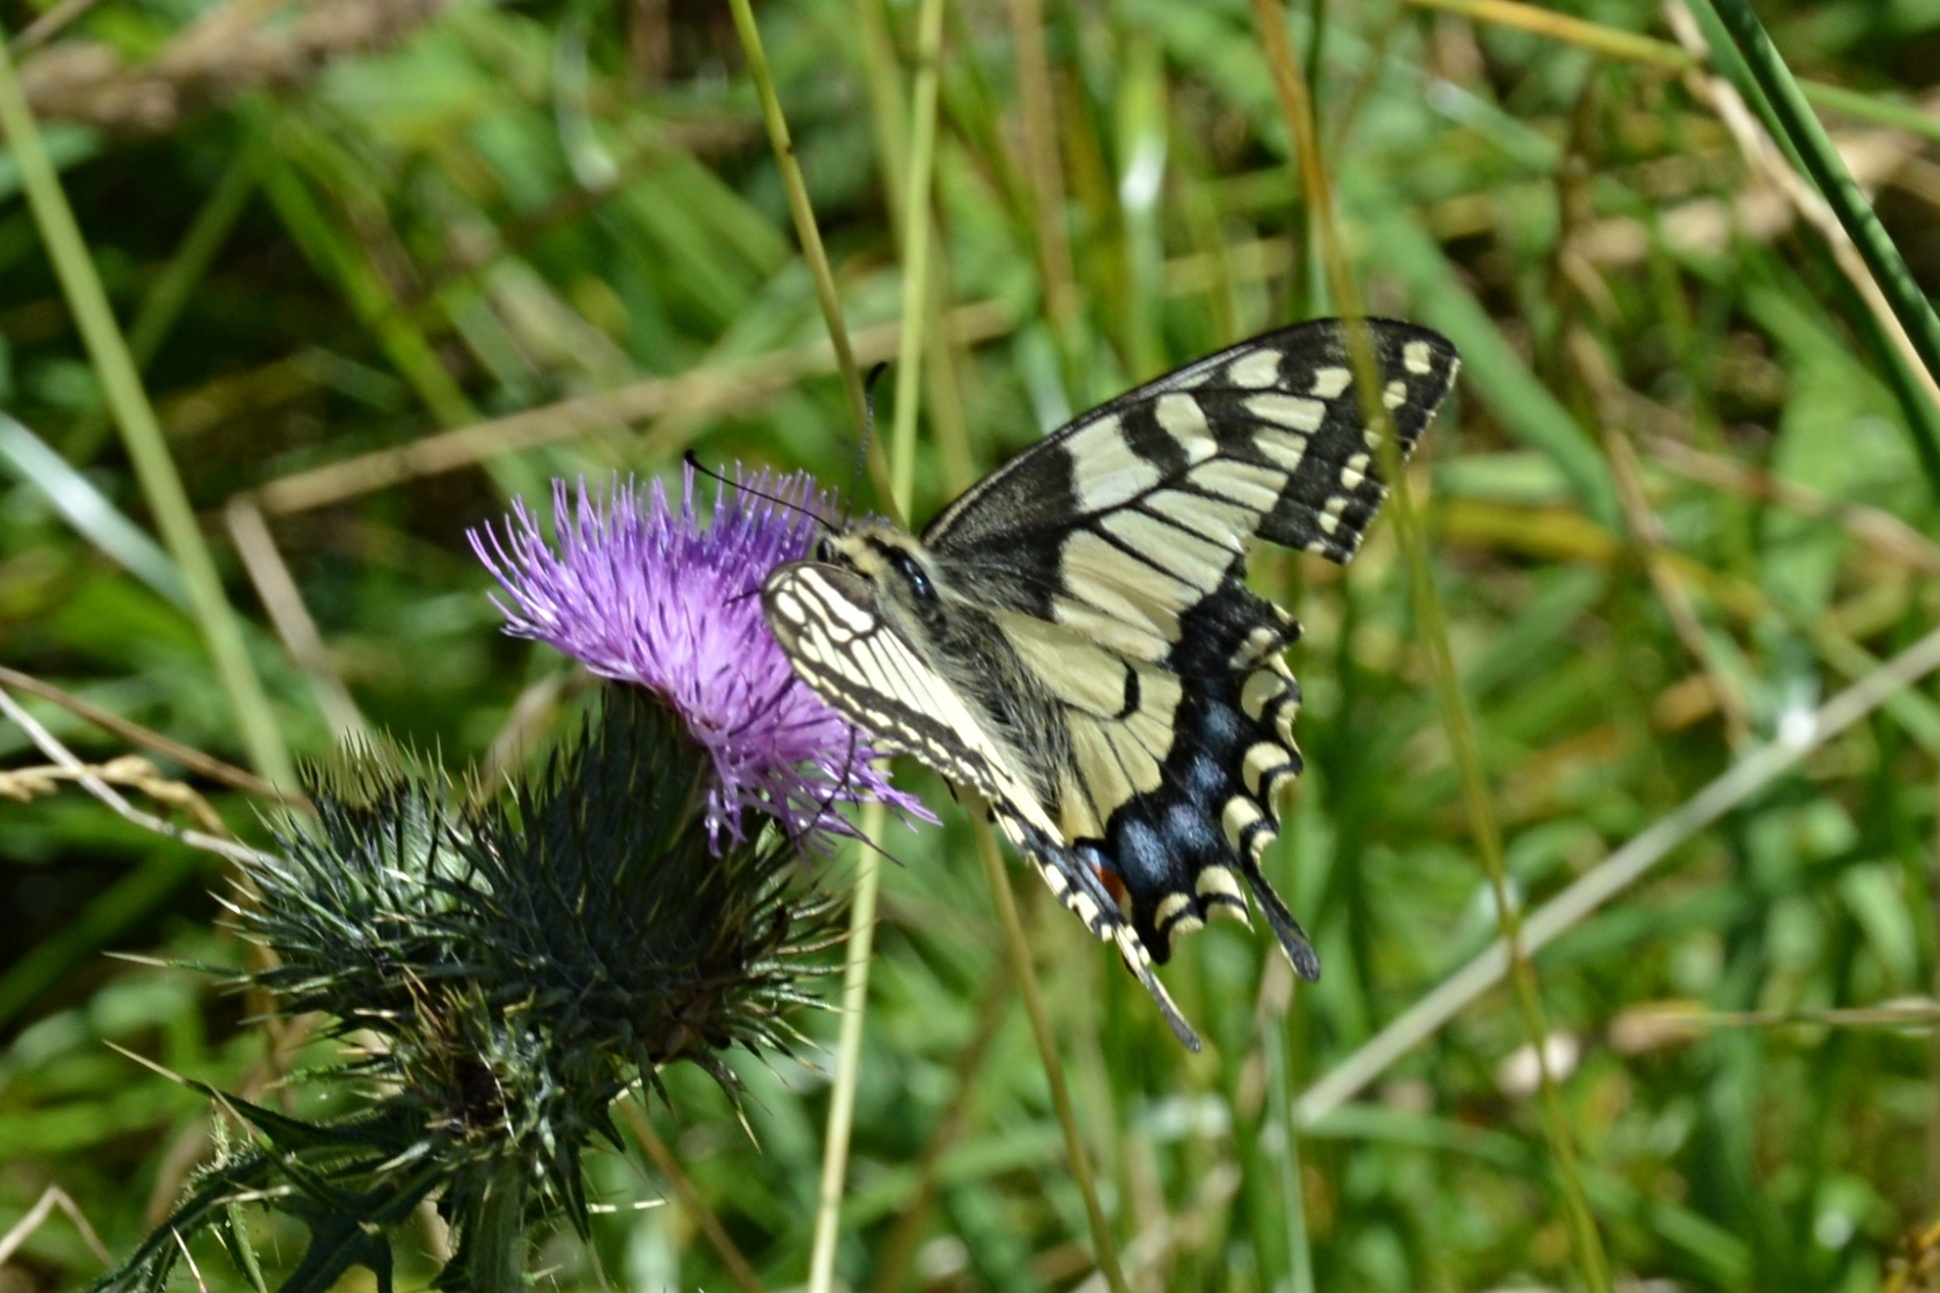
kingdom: Animalia
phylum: Arthropoda
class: Insecta
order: Lepidoptera
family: Papilionidae
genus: Papilio
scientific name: Papilio machaon
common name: Swallowtail
